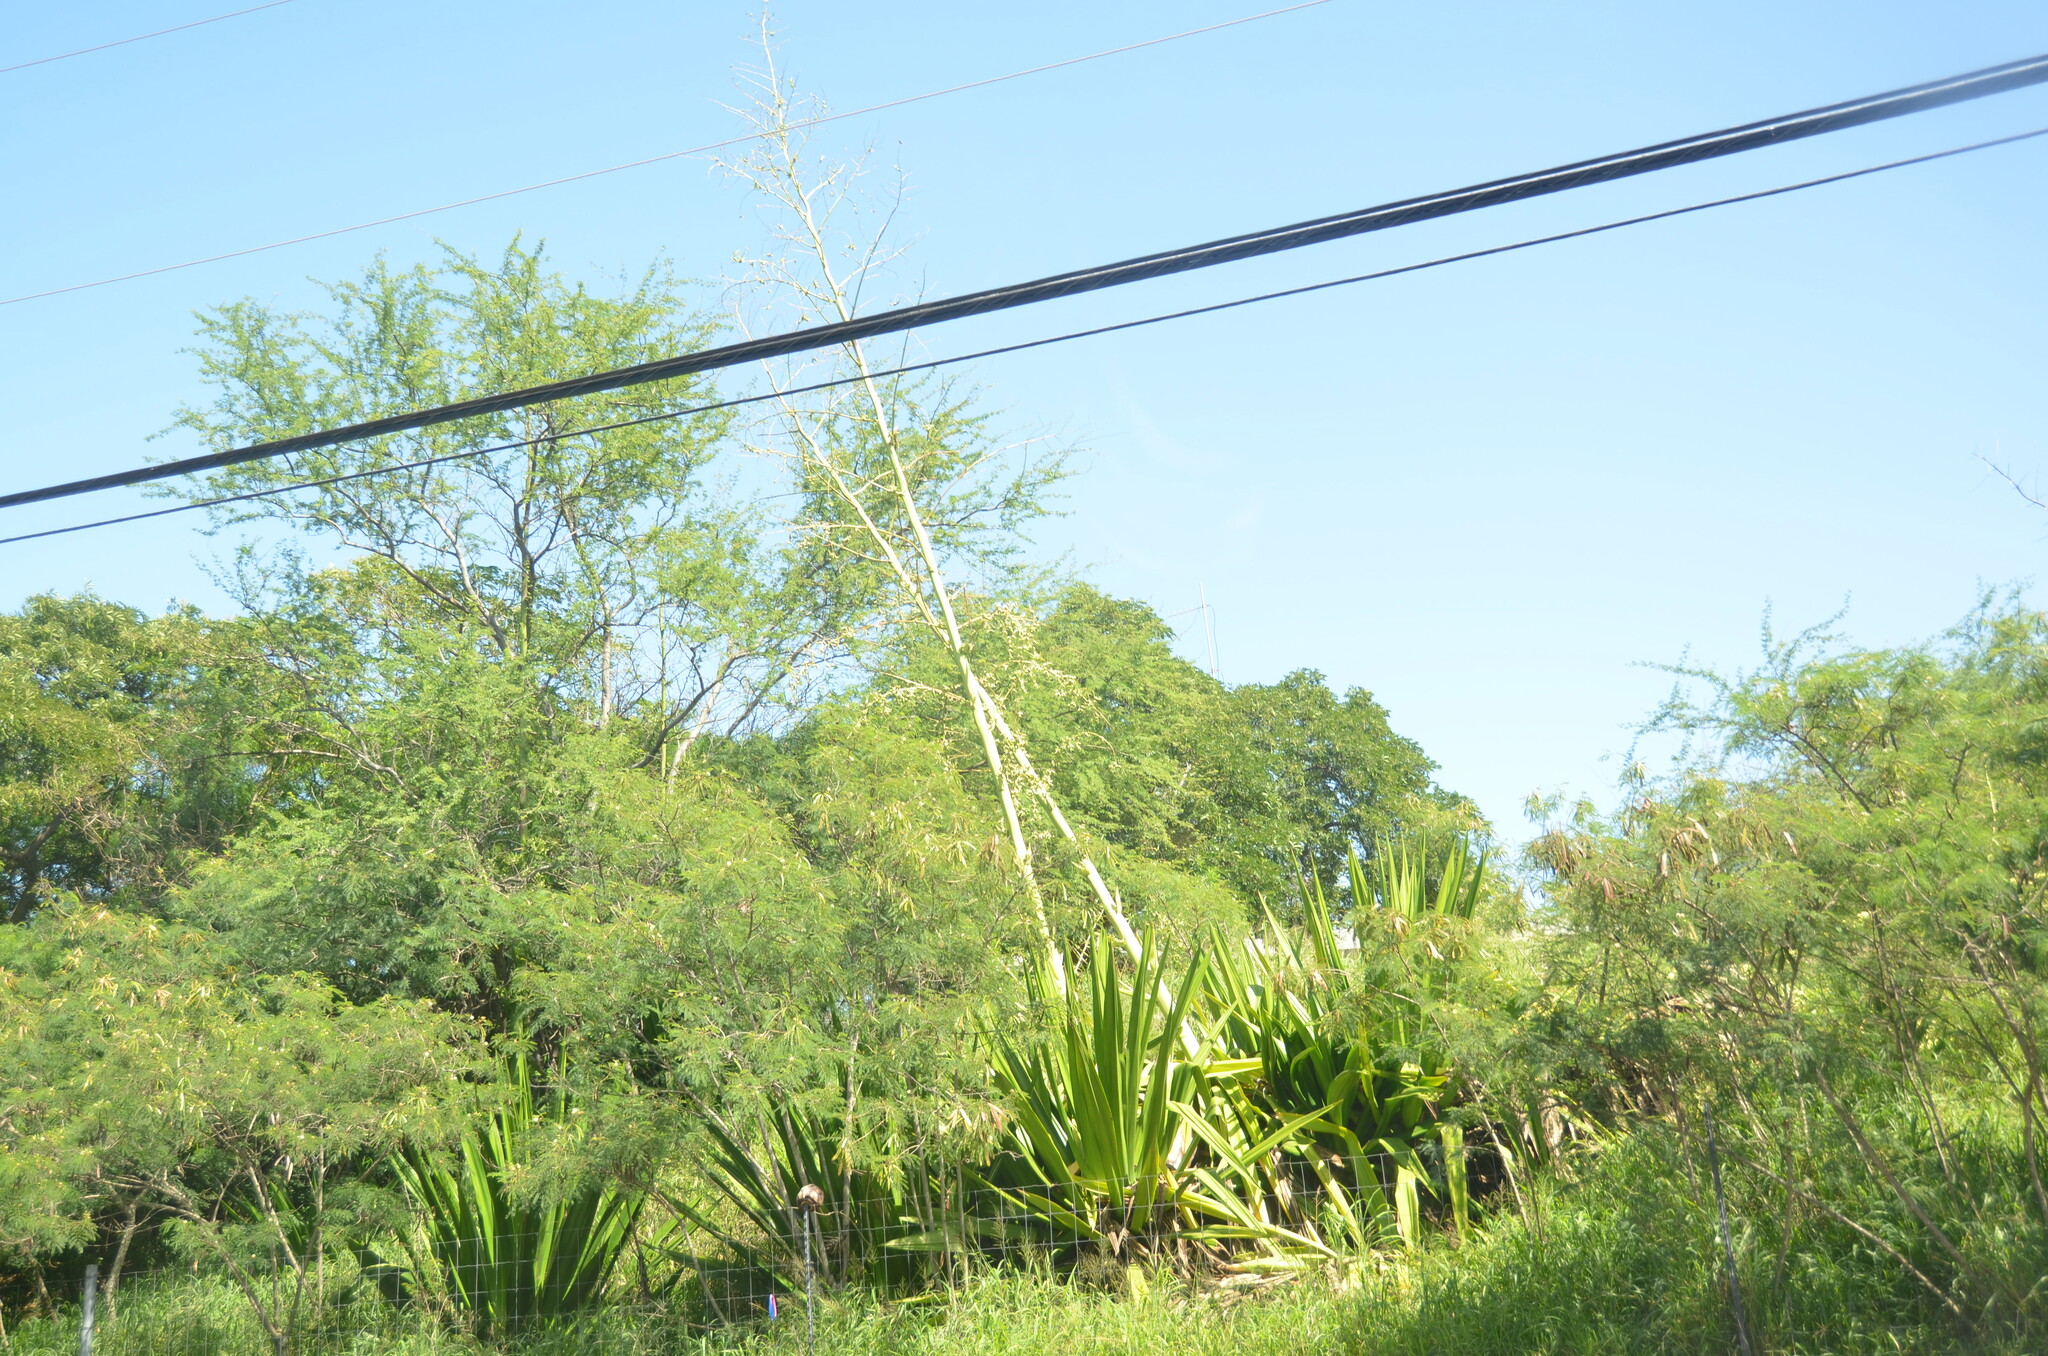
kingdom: Plantae
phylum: Tracheophyta
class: Liliopsida
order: Asparagales
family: Asparagaceae
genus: Furcraea
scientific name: Furcraea foetida
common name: Mauritius hemp
